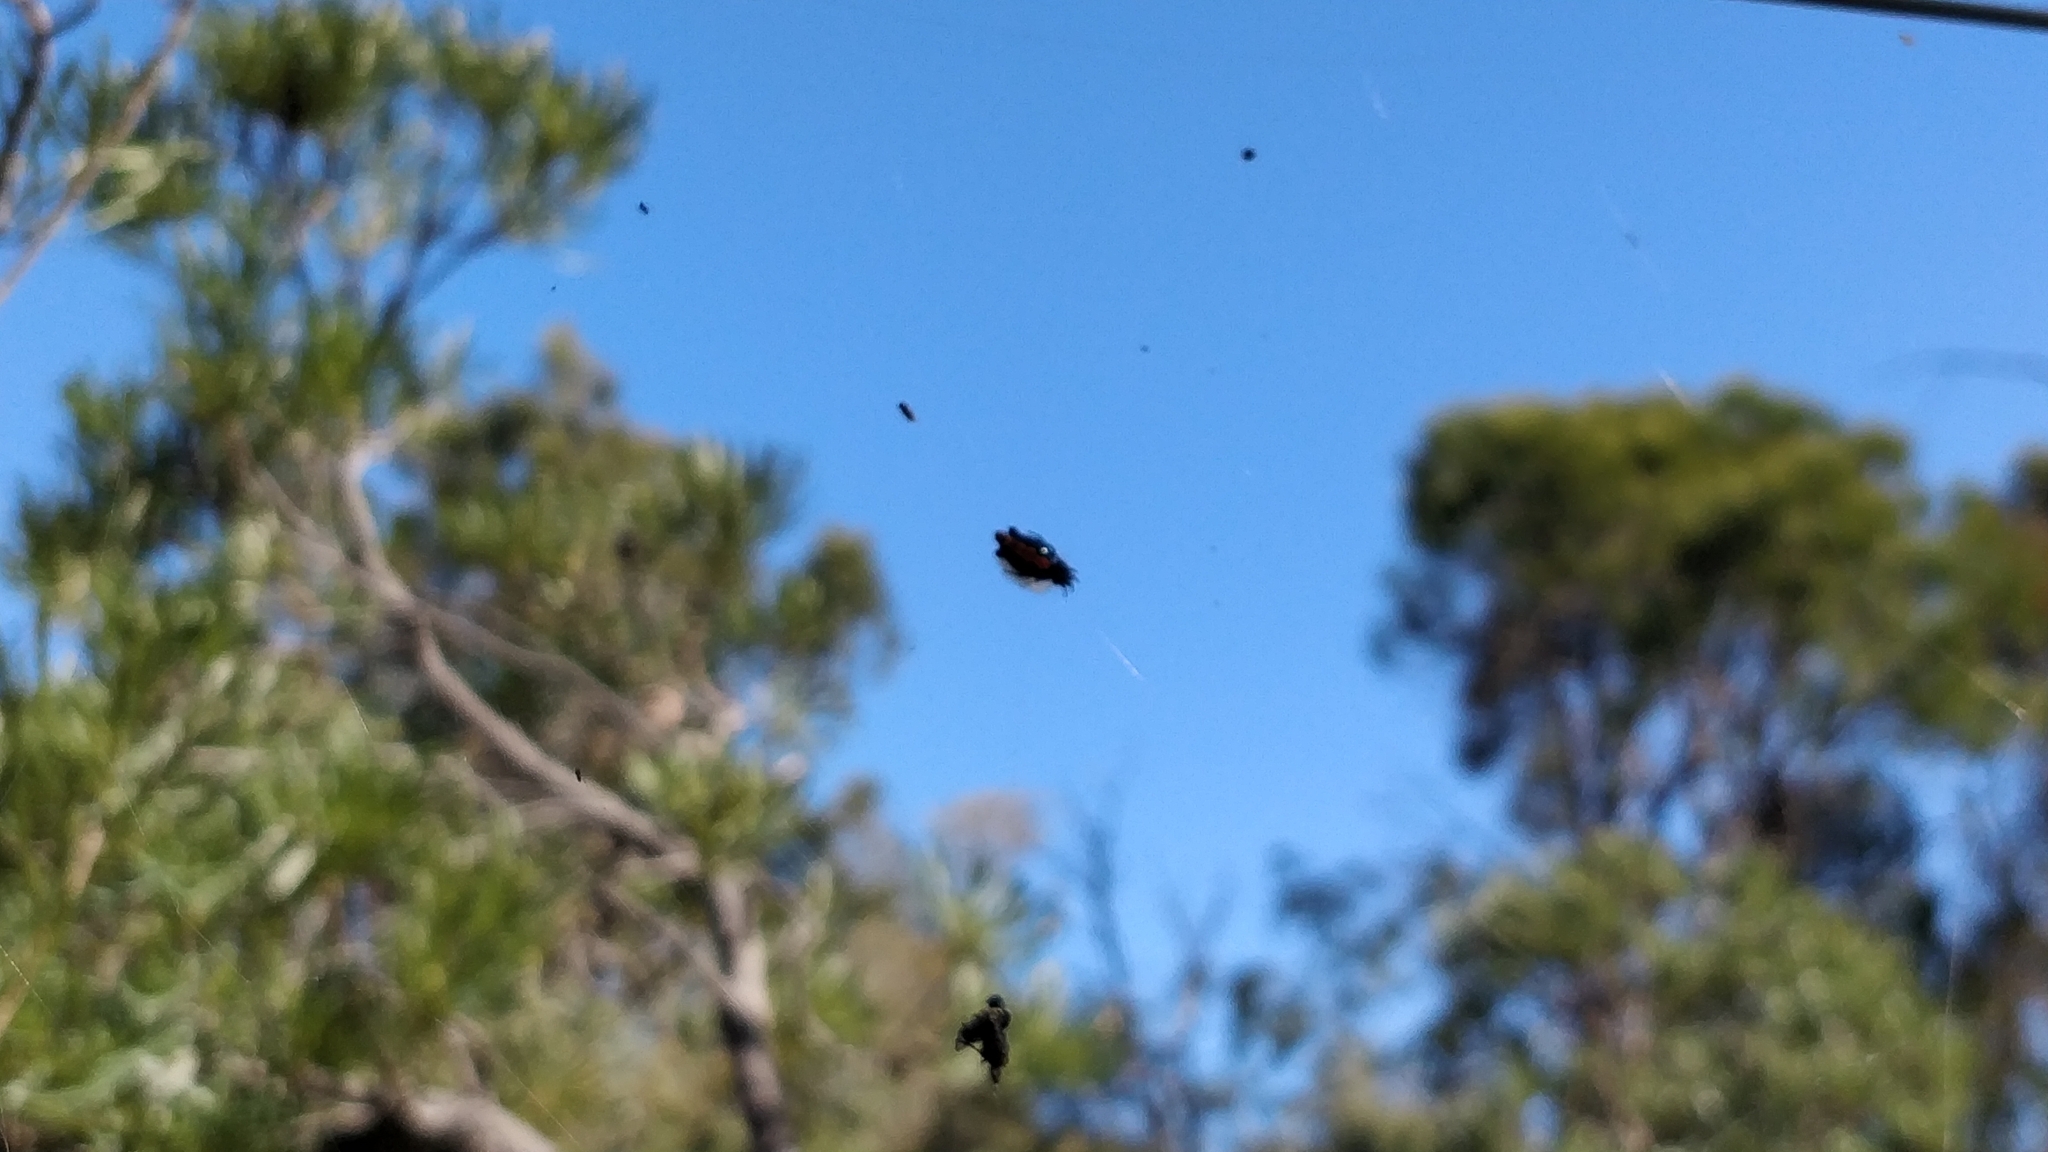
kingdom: Animalia
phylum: Arthropoda
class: Arachnida
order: Araneae
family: Araneidae
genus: Cyclosa
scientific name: Cyclosa trilobata
